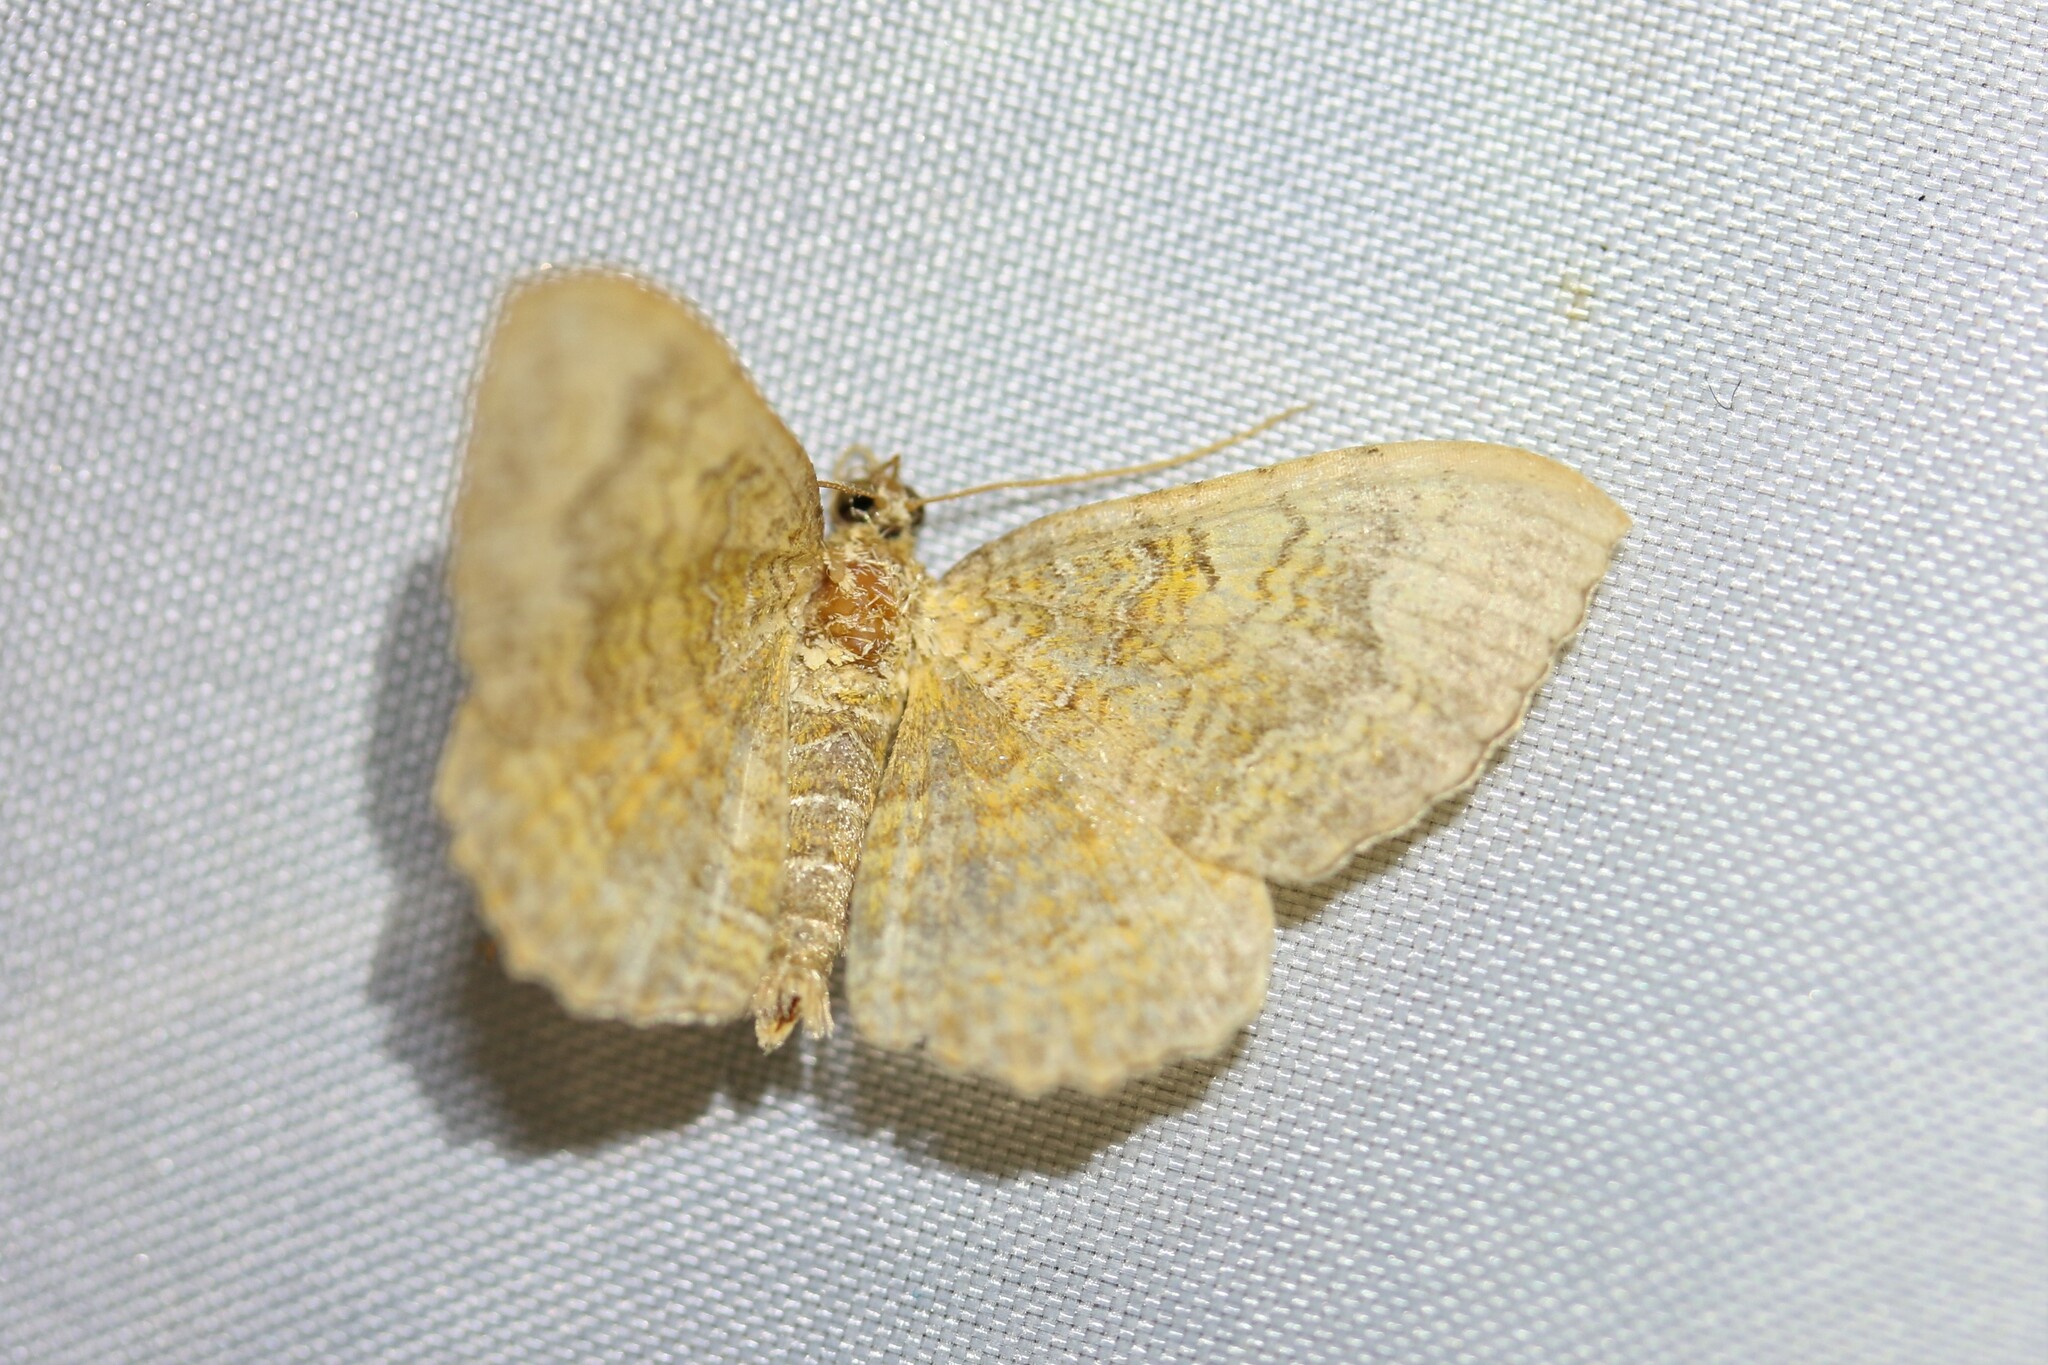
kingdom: Animalia
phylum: Arthropoda
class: Insecta
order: Lepidoptera
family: Geometridae
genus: Camptogramma
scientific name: Camptogramma bilineata
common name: Yellow shell
